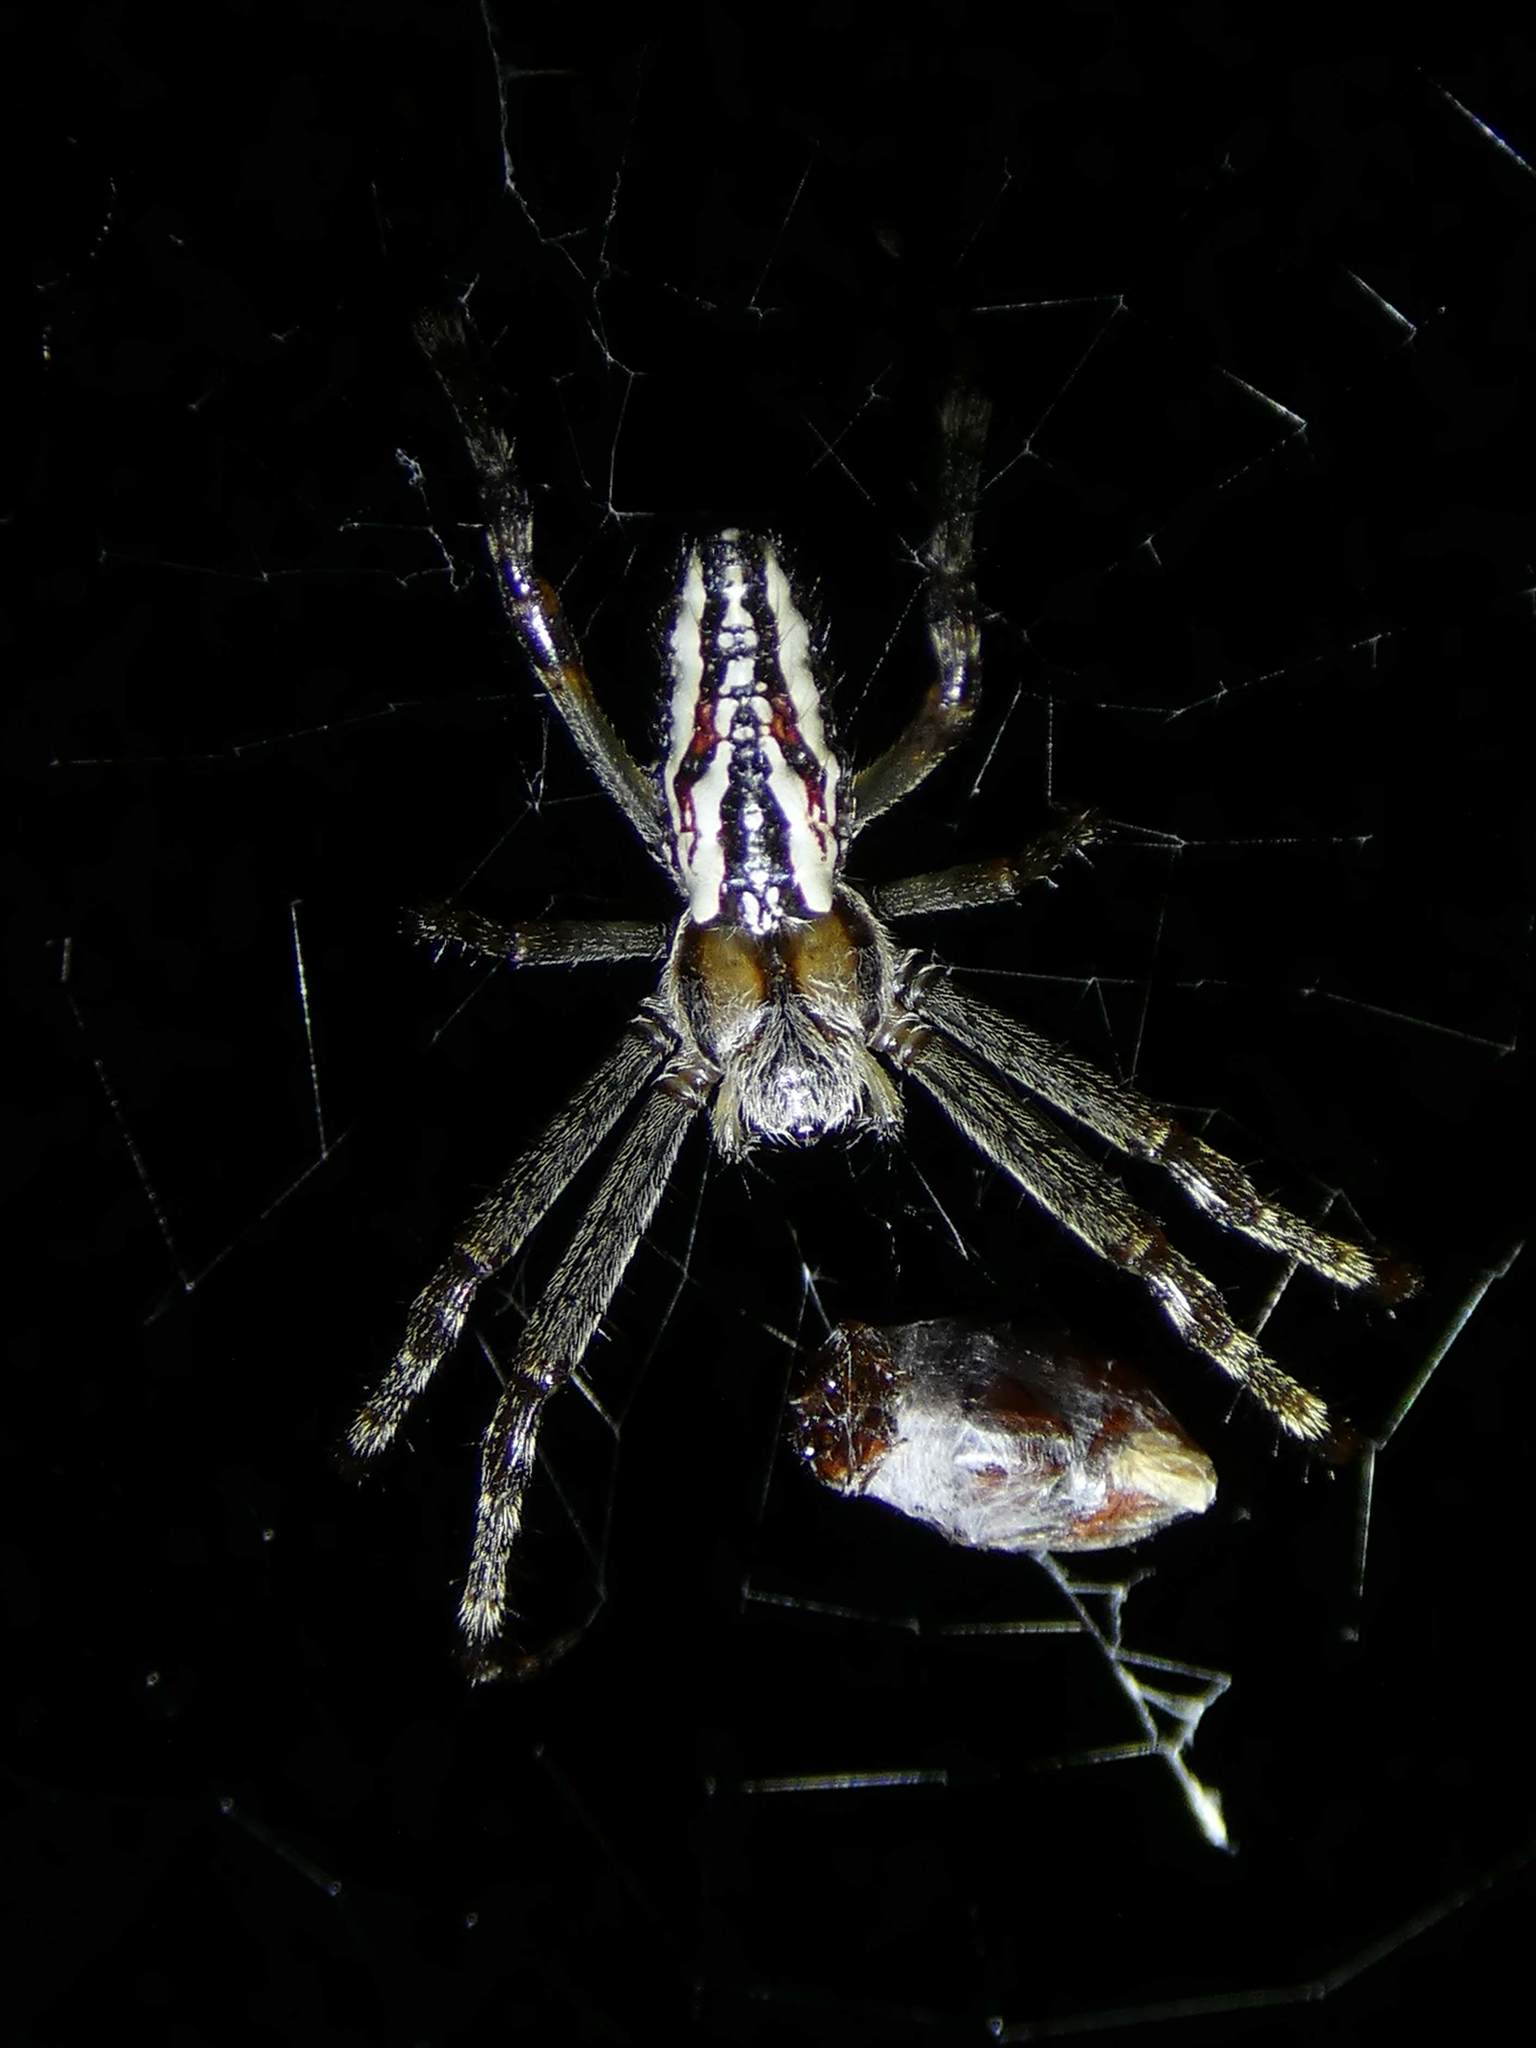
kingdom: Animalia
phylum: Arthropoda
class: Arachnida
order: Araneae
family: Araneidae
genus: Plebs
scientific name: Plebs bradleyi
